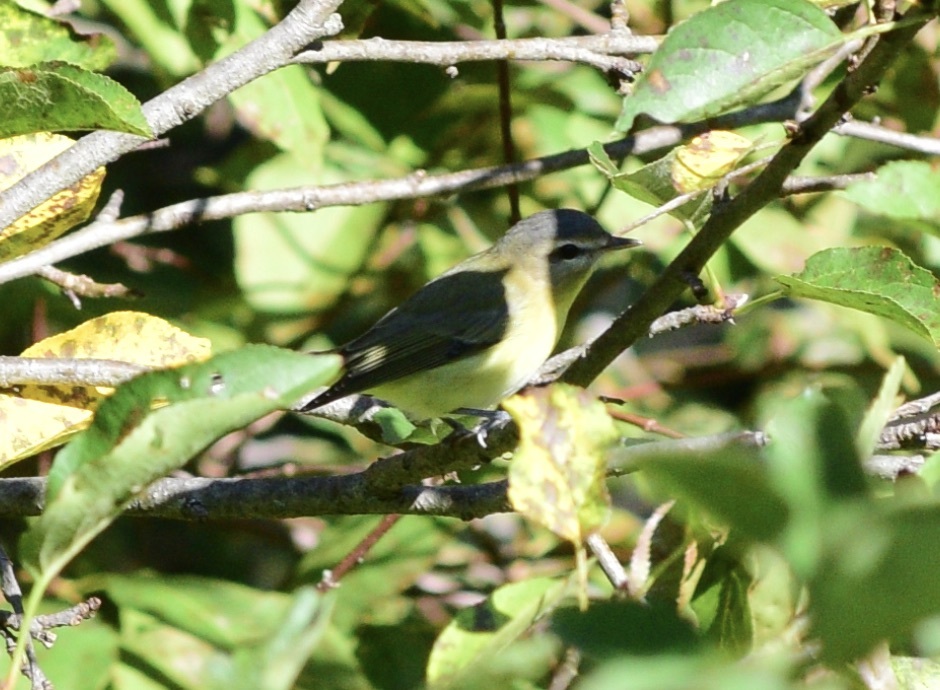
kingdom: Animalia
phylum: Chordata
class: Aves
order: Passeriformes
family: Vireonidae
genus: Vireo
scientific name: Vireo philadelphicus
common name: Philadelphia vireo
